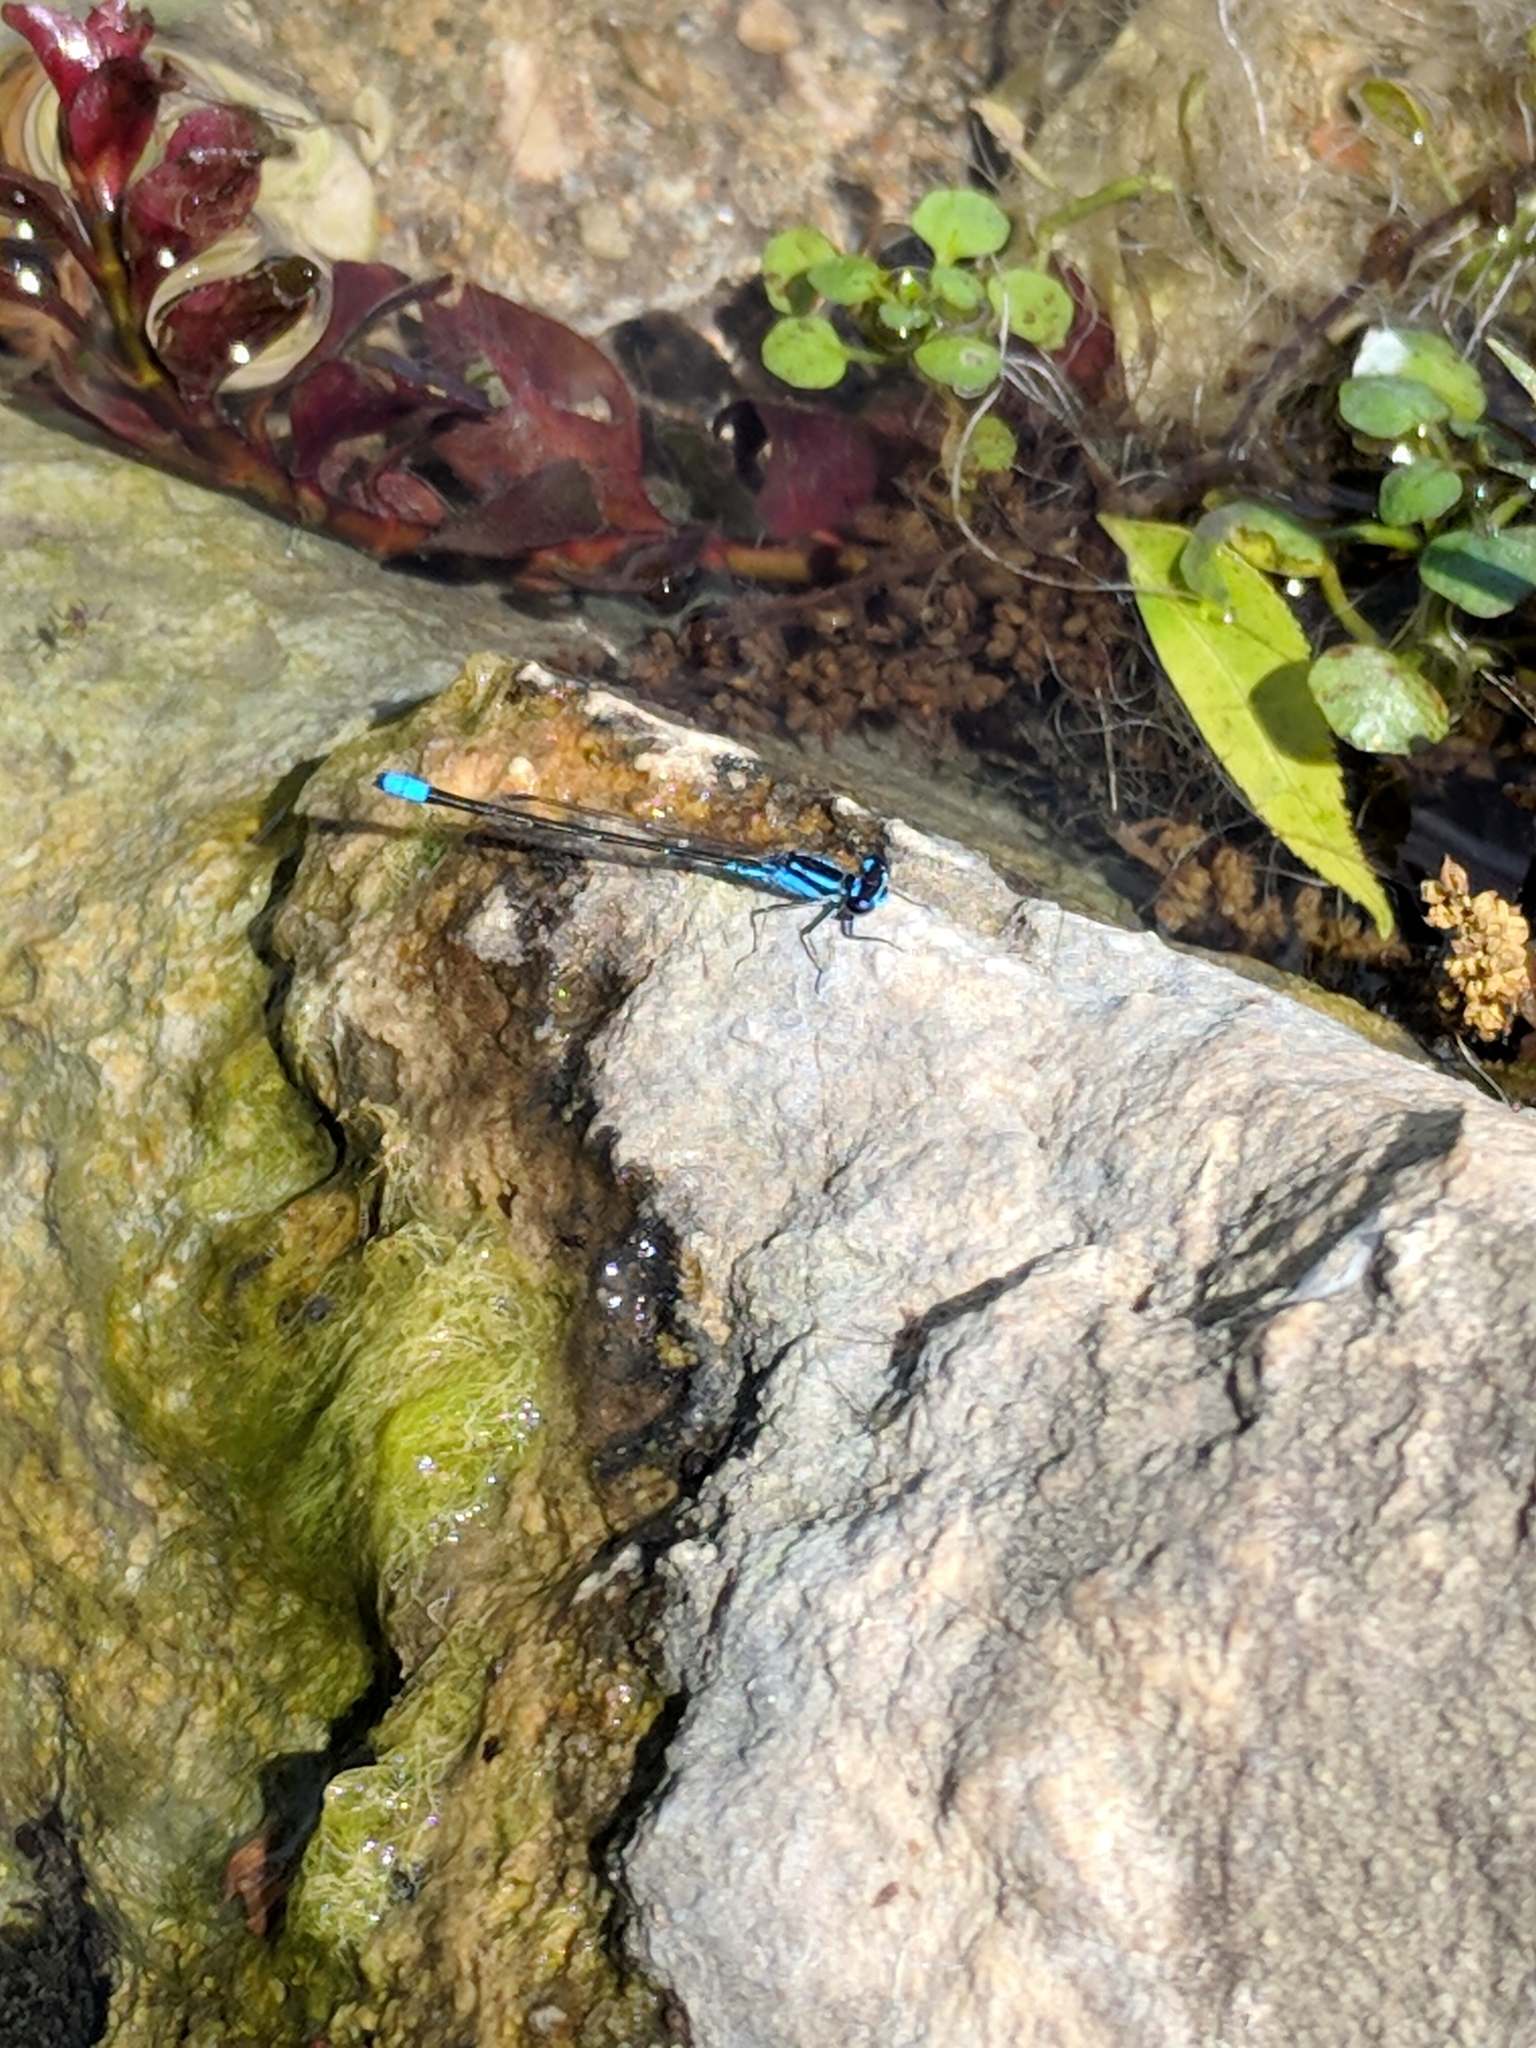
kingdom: Animalia
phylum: Arthropoda
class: Insecta
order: Odonata
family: Coenagrionidae
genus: Enallagma
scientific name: Enallagma geminatum
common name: Skimming bluet
